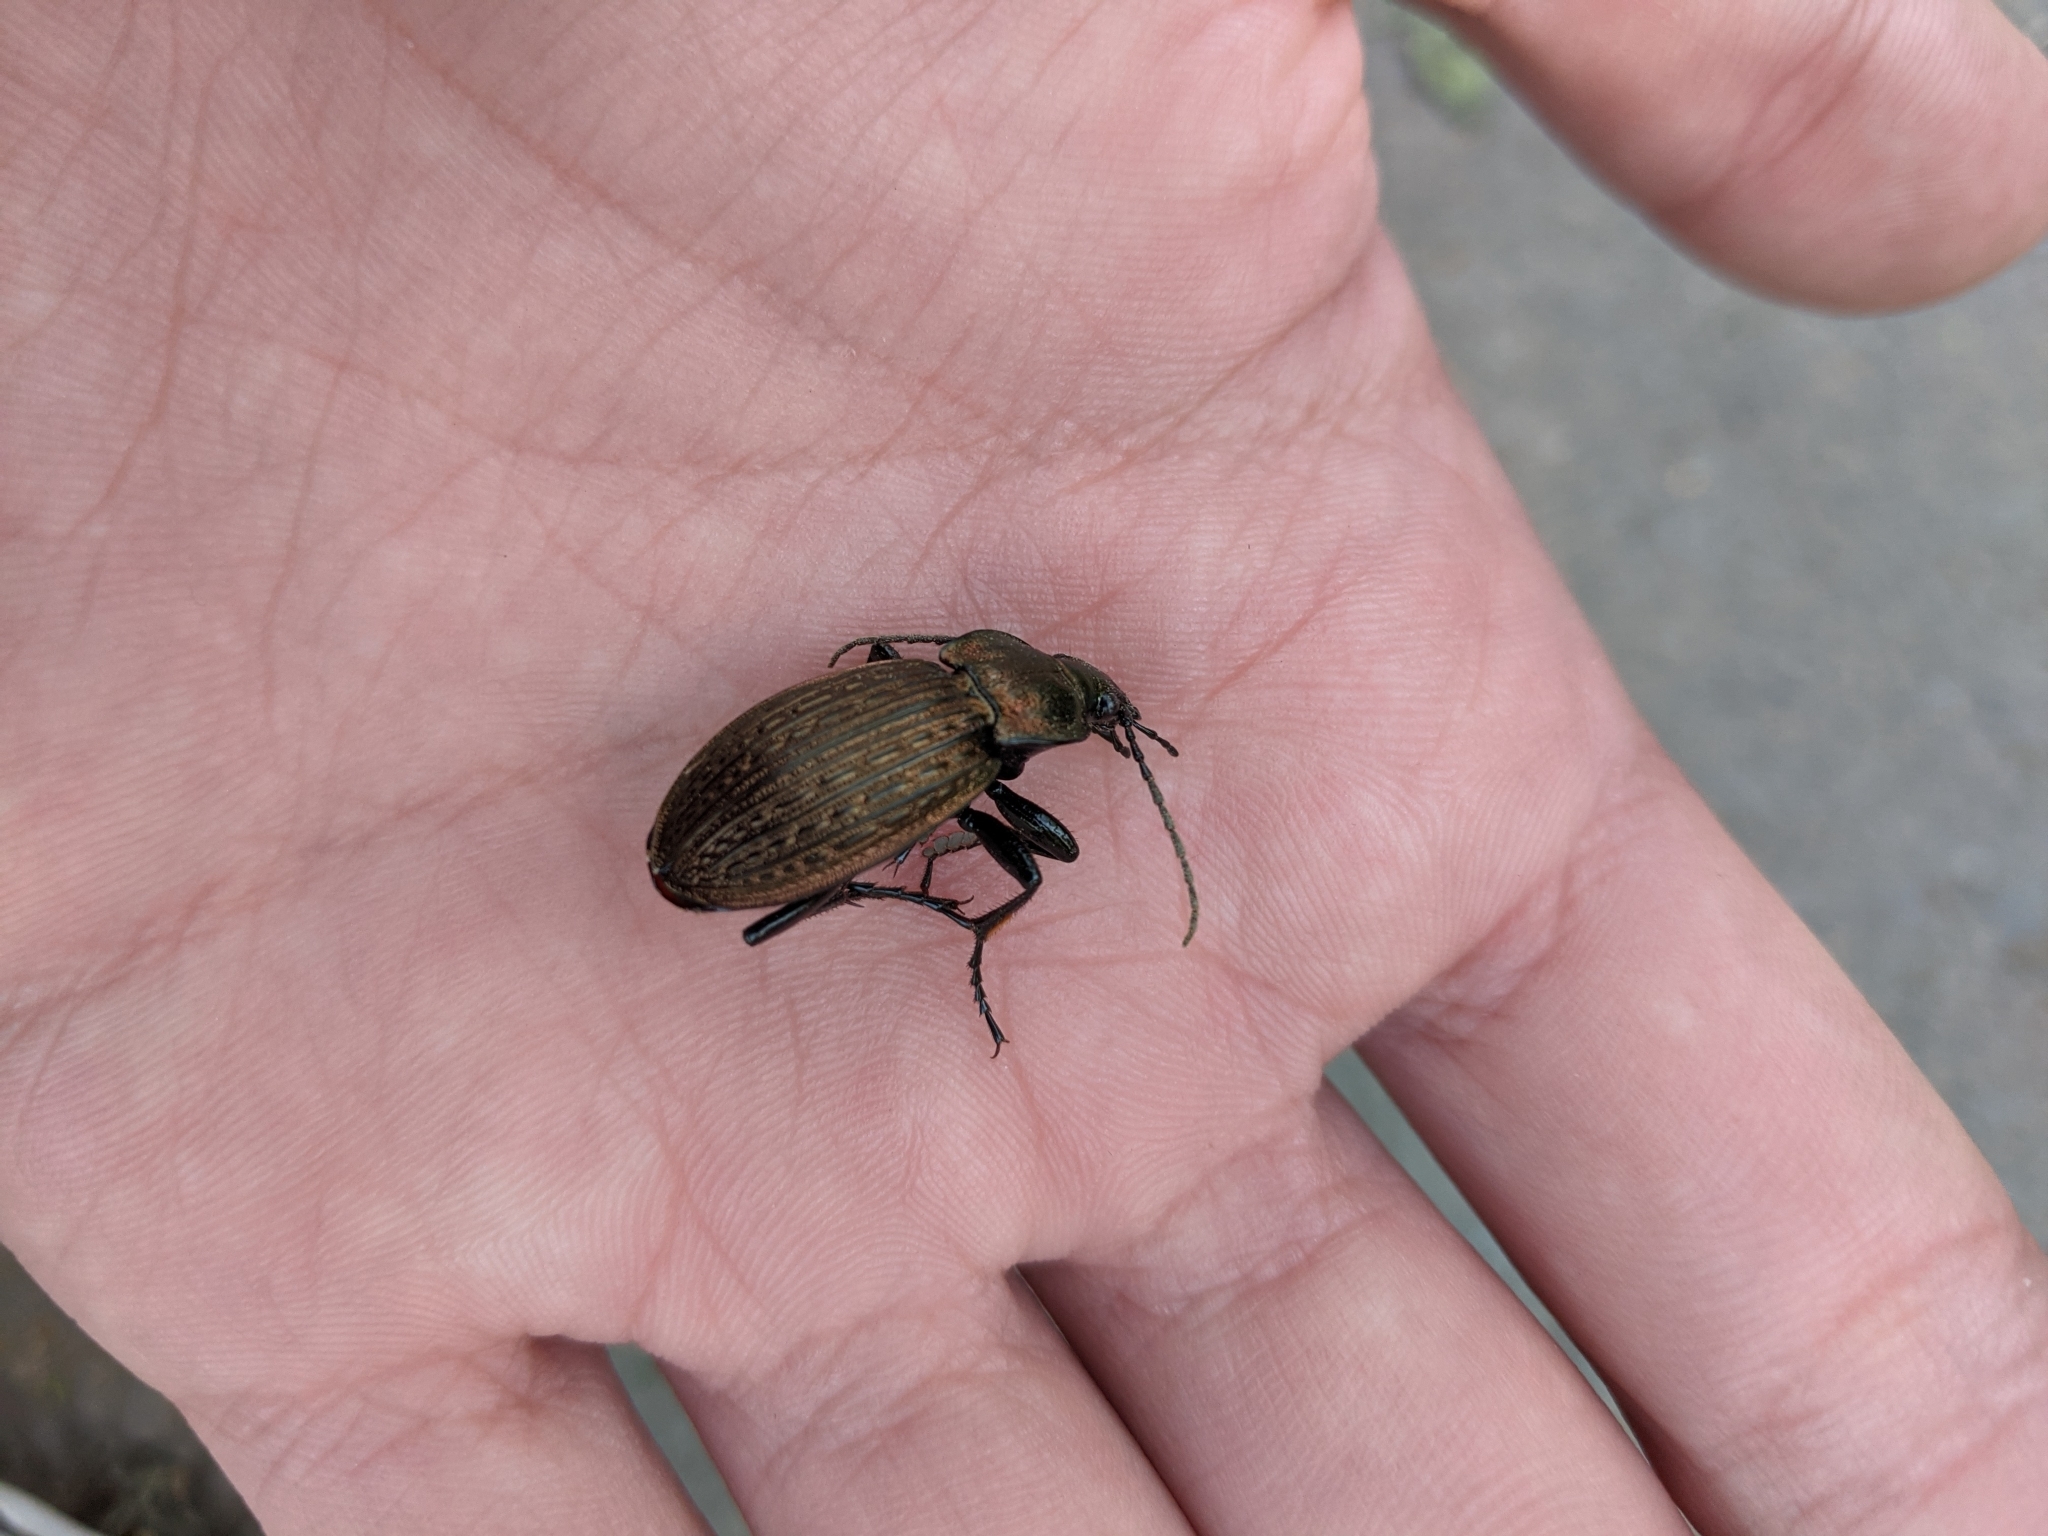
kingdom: Animalia
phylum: Arthropoda
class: Insecta
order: Coleoptera
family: Carabidae
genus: Carabus
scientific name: Carabus ulrichii
